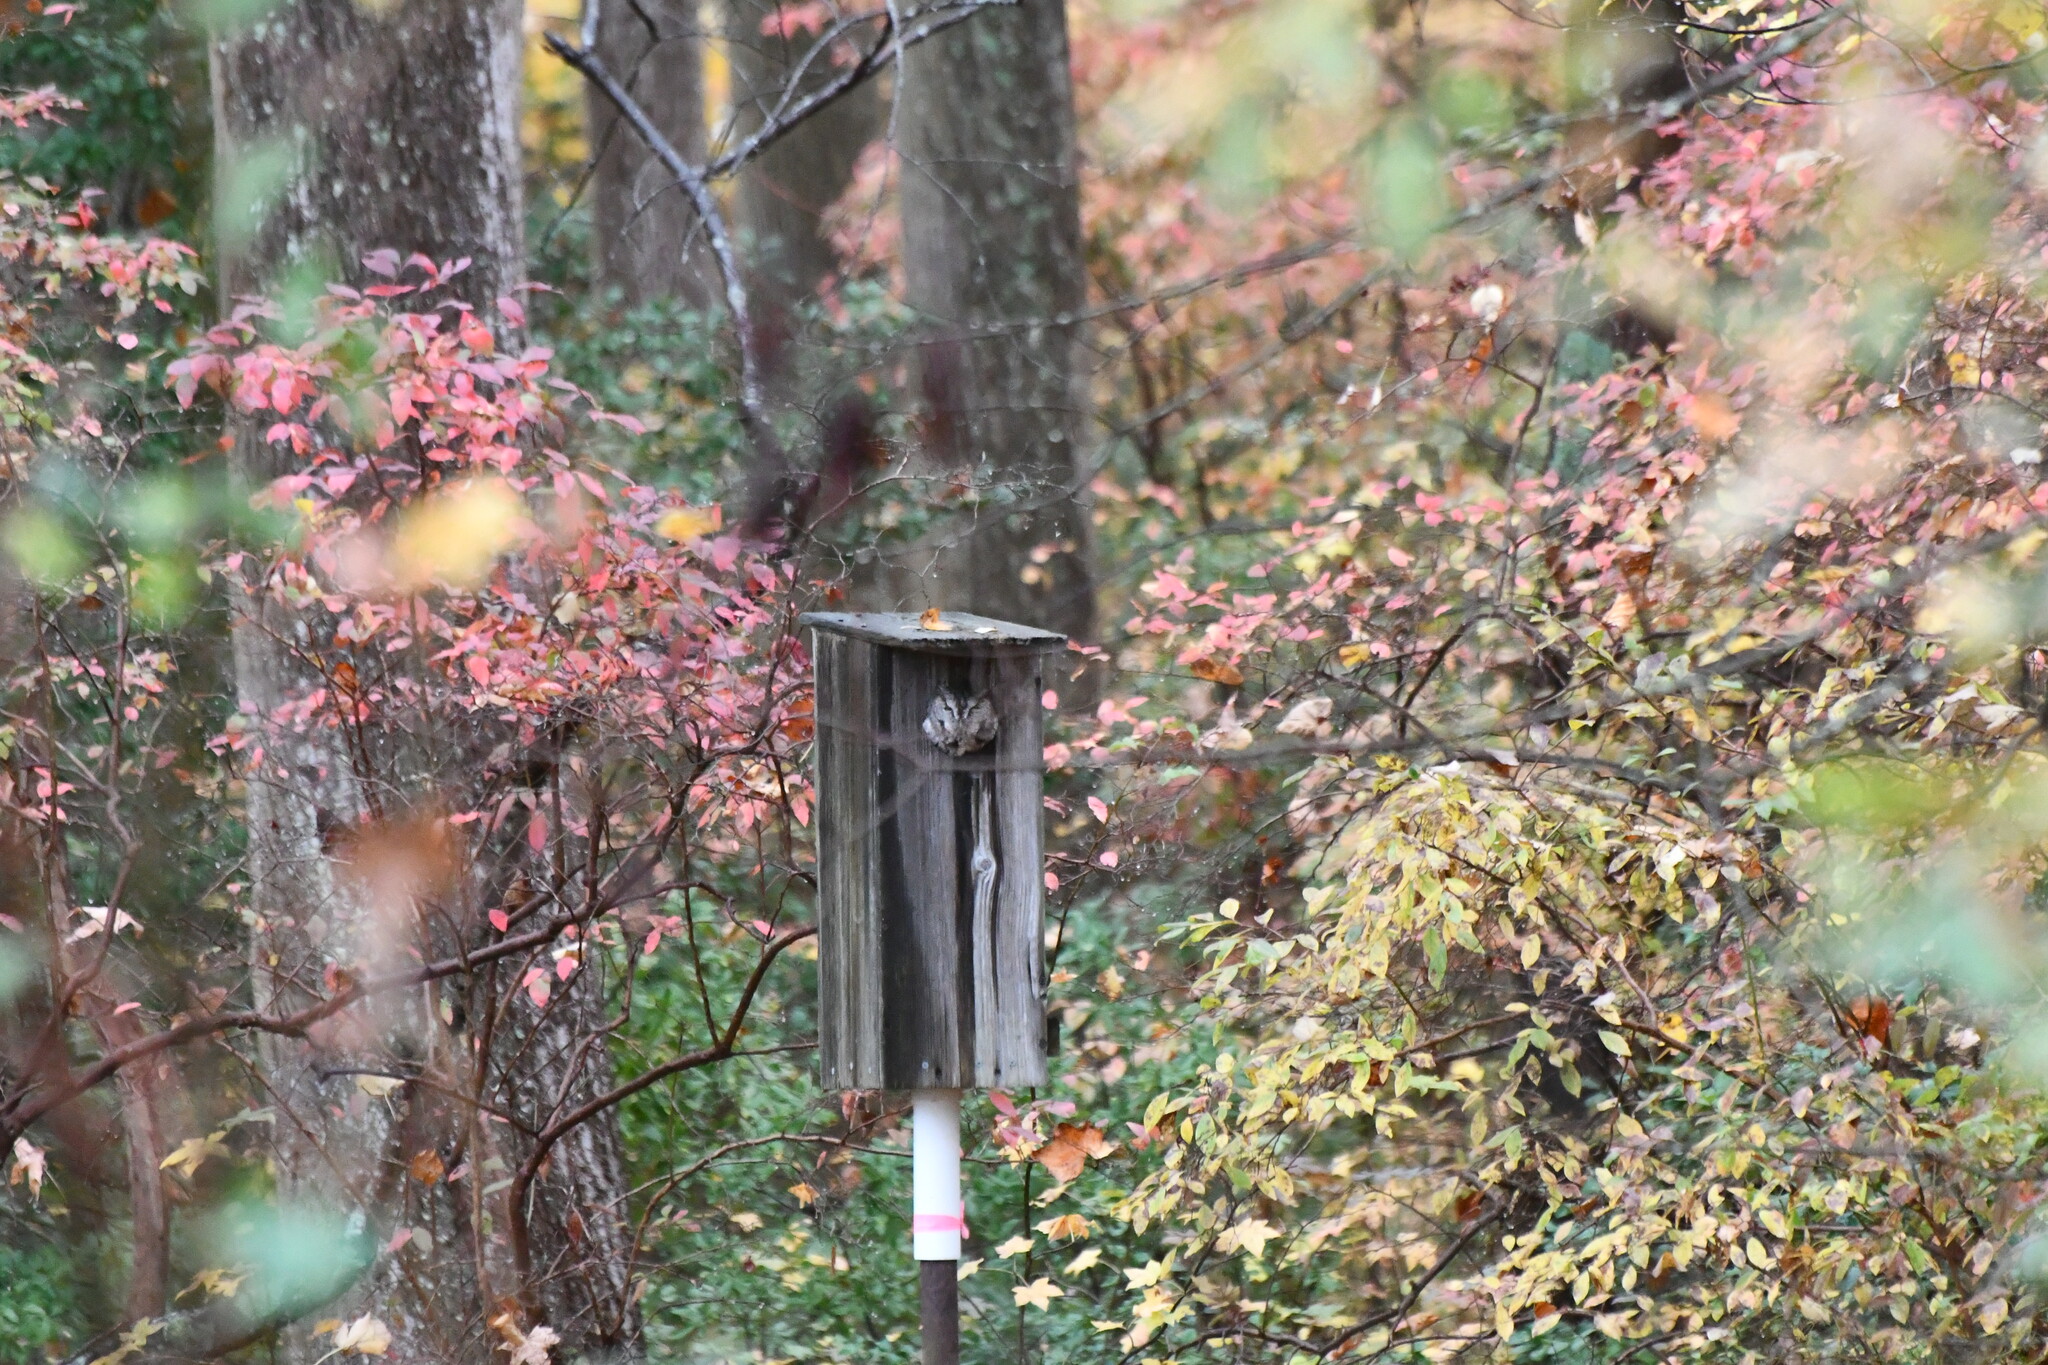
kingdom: Animalia
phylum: Chordata
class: Aves
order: Strigiformes
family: Strigidae
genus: Megascops
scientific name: Megascops asio
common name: Eastern screech-owl
